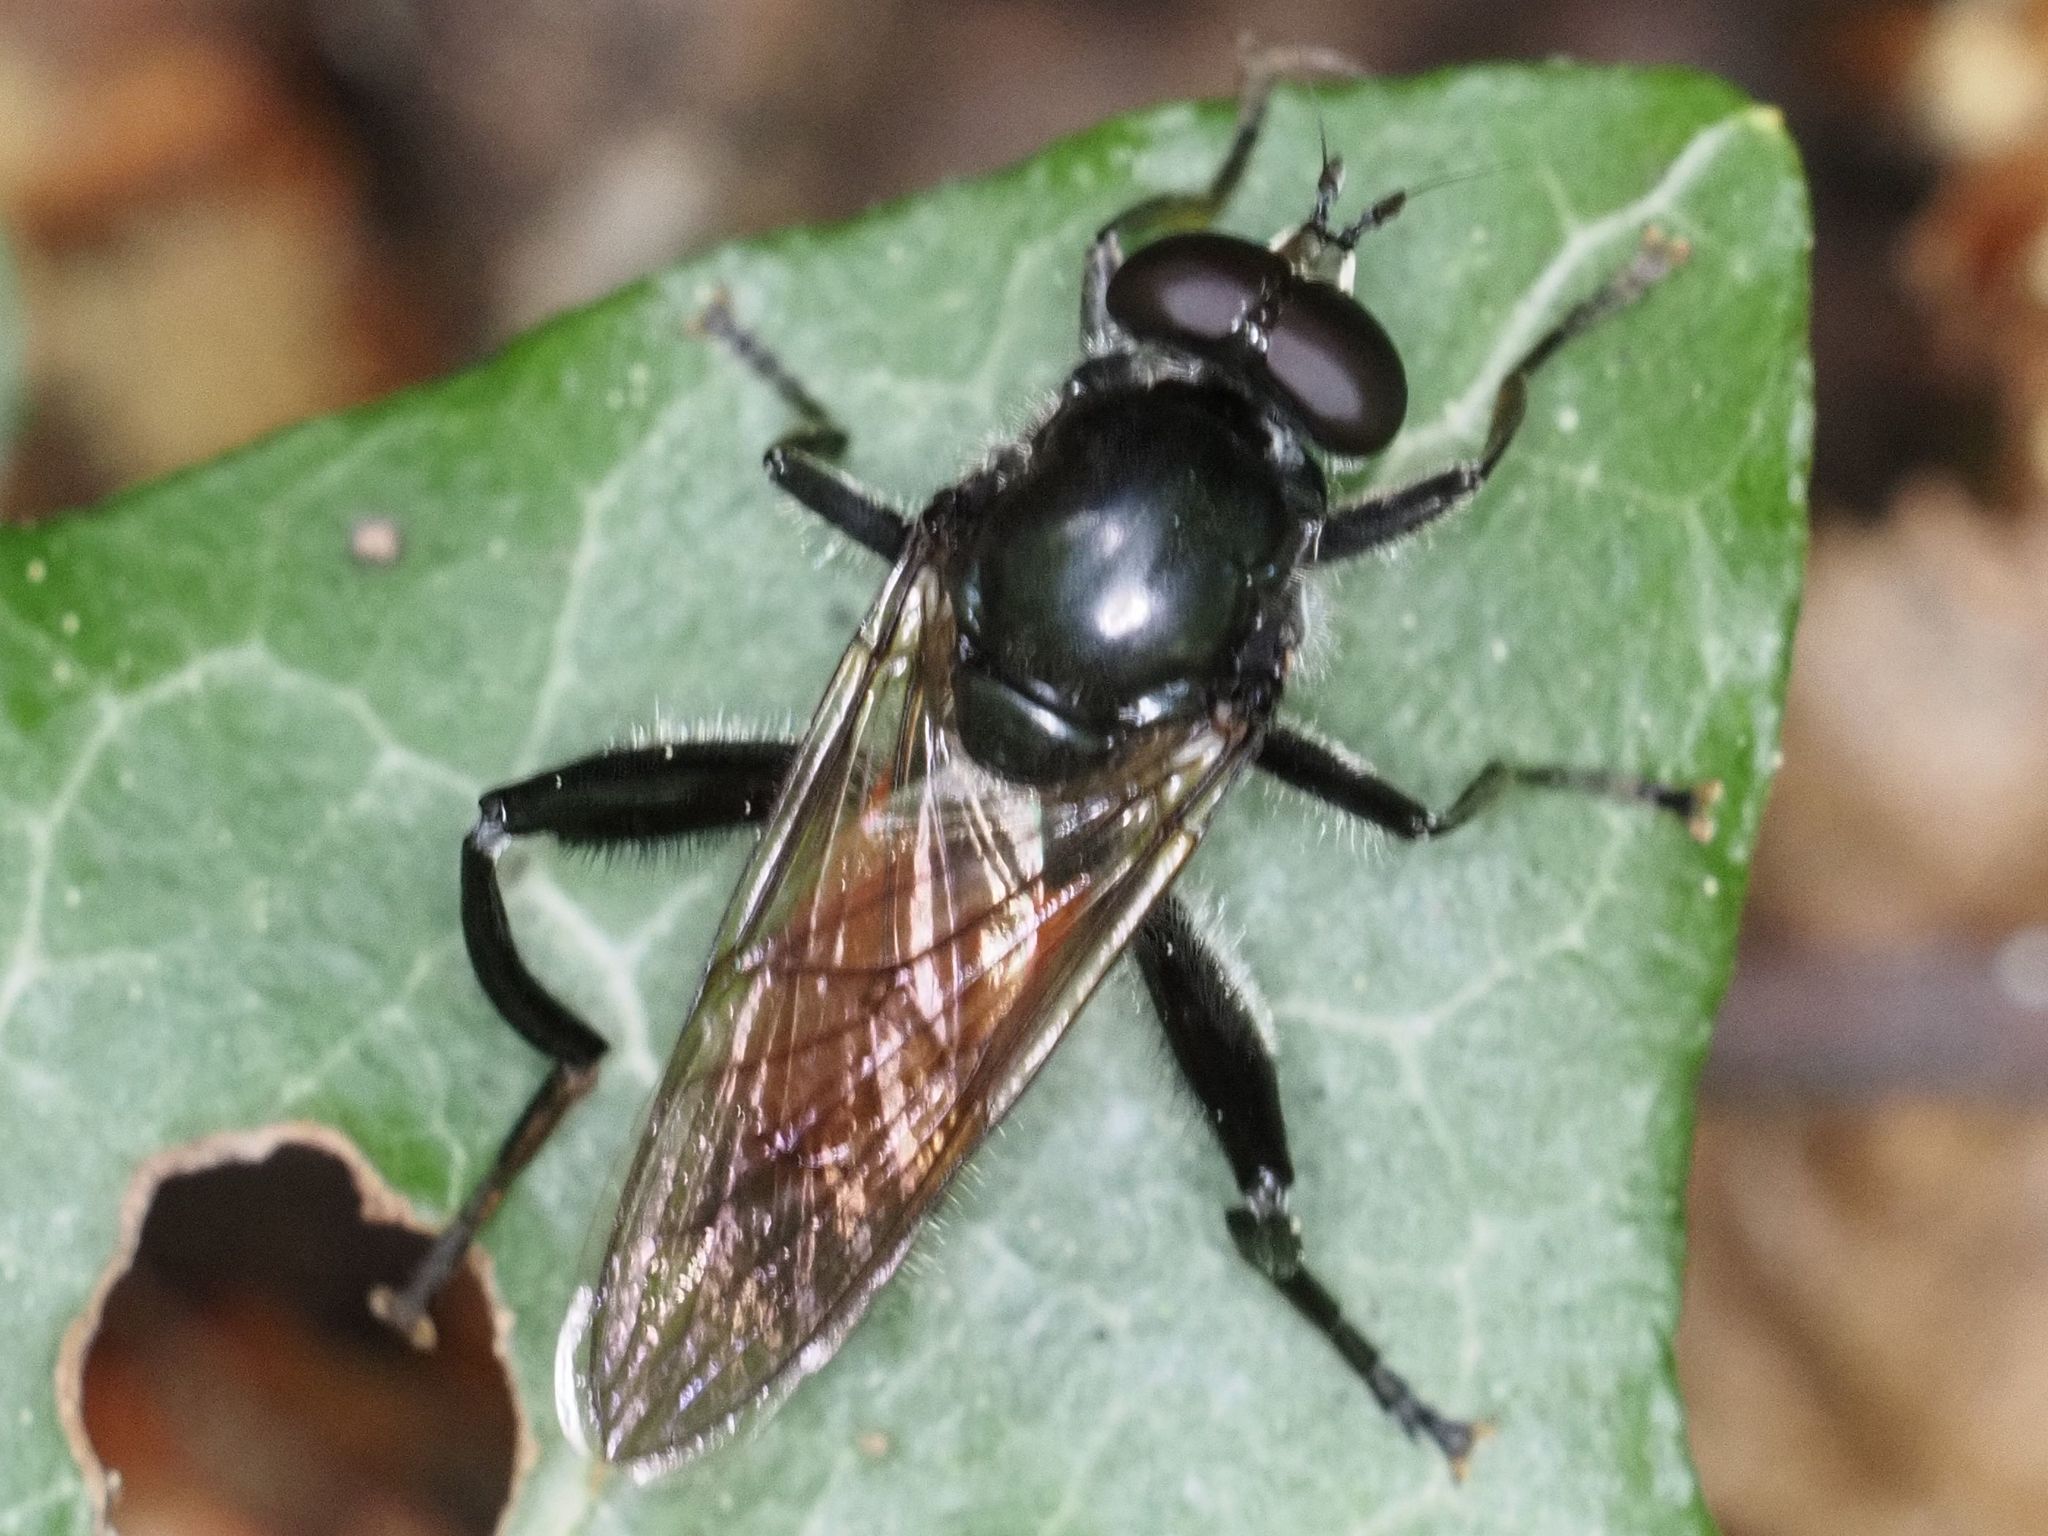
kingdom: Animalia
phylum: Arthropoda
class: Insecta
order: Diptera
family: Syrphidae
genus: Brachypalpoides
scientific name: Brachypalpoides lenta
